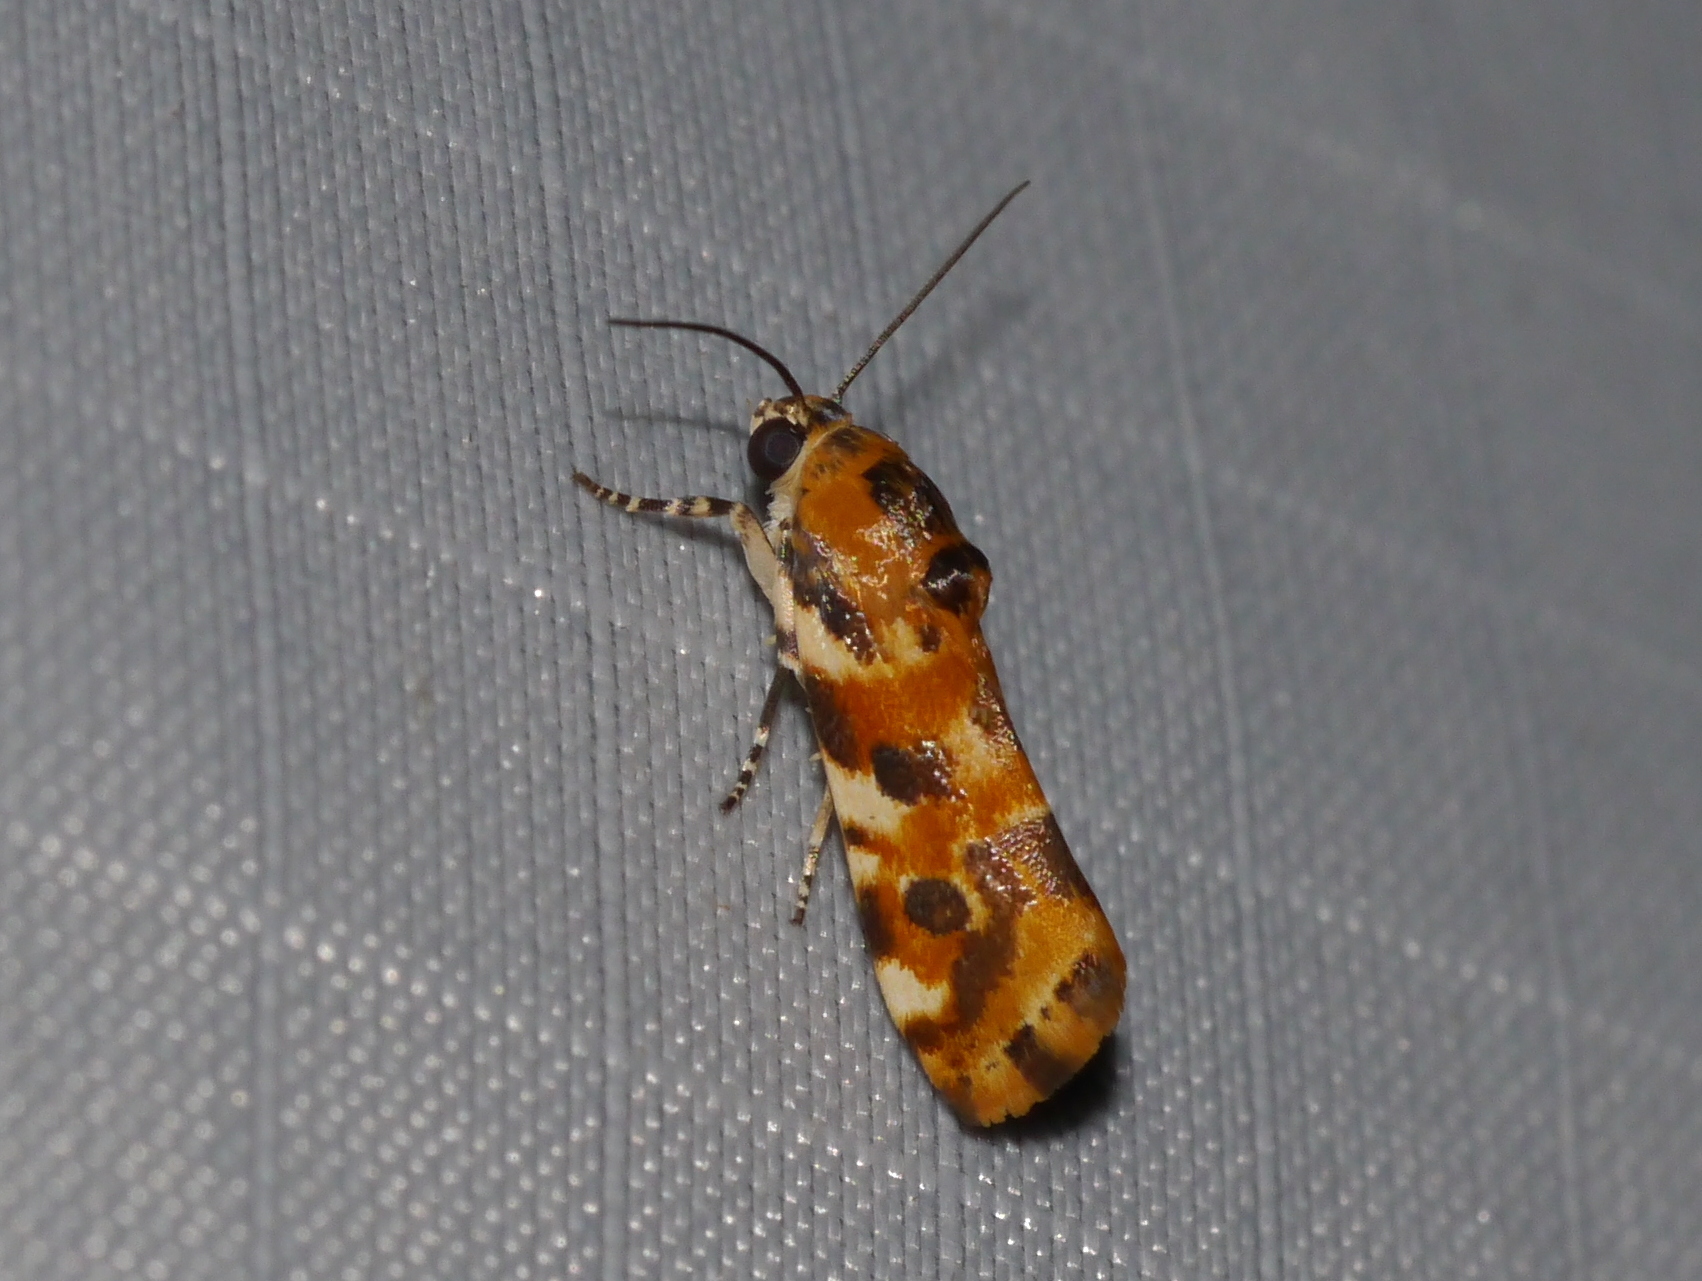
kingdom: Animalia
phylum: Arthropoda
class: Insecta
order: Lepidoptera
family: Noctuidae
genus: Spragueia
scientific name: Spragueia jaguaralis
